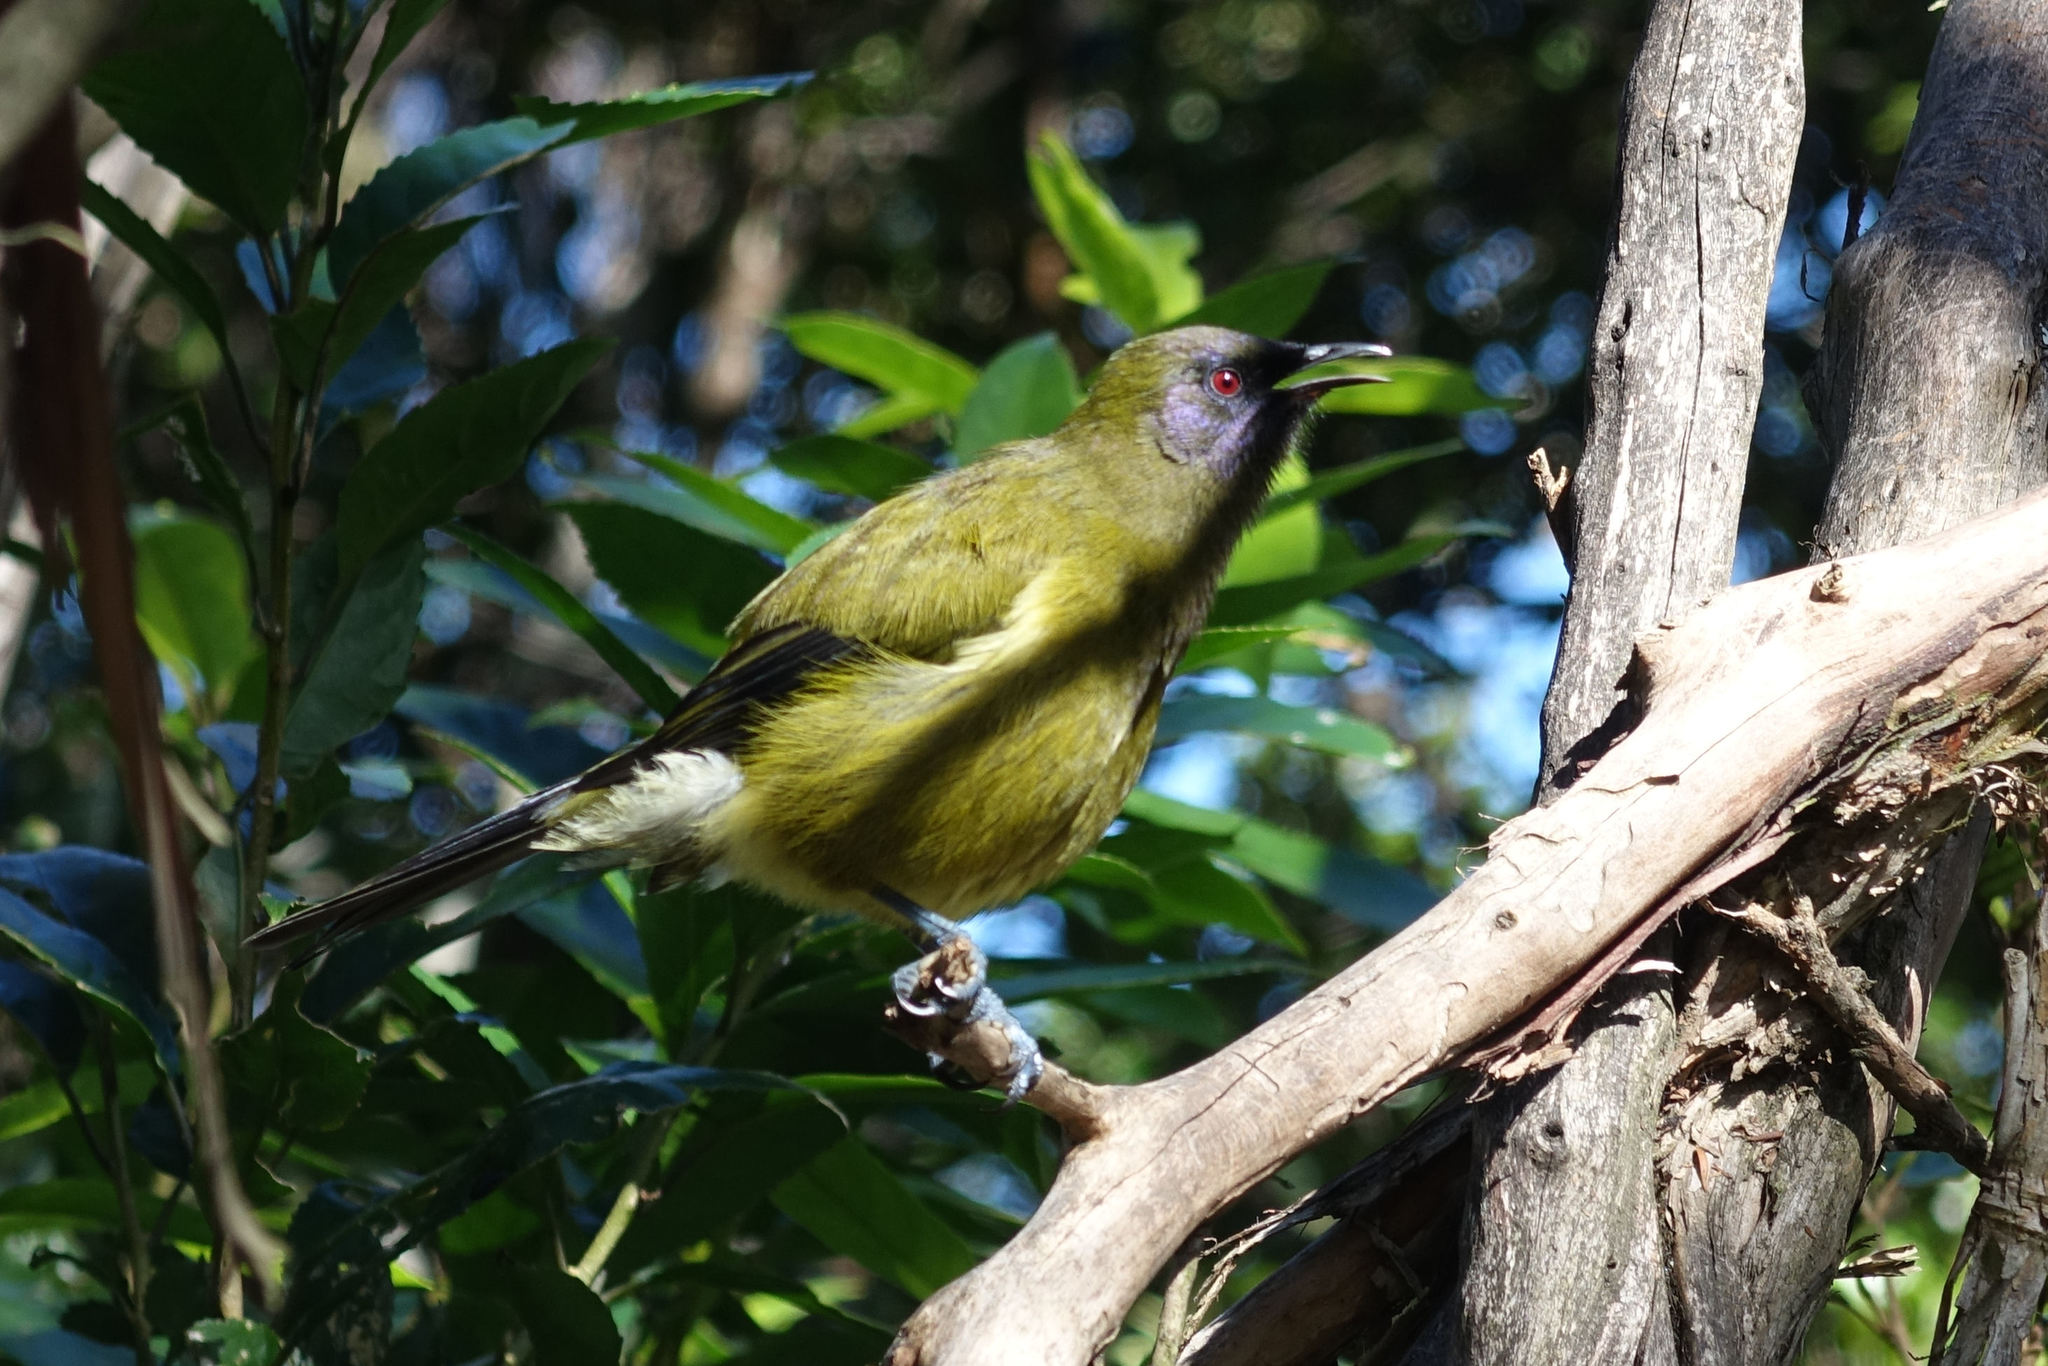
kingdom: Animalia
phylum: Chordata
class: Aves
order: Passeriformes
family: Meliphagidae
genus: Anthornis
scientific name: Anthornis melanura
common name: New zealand bellbird
